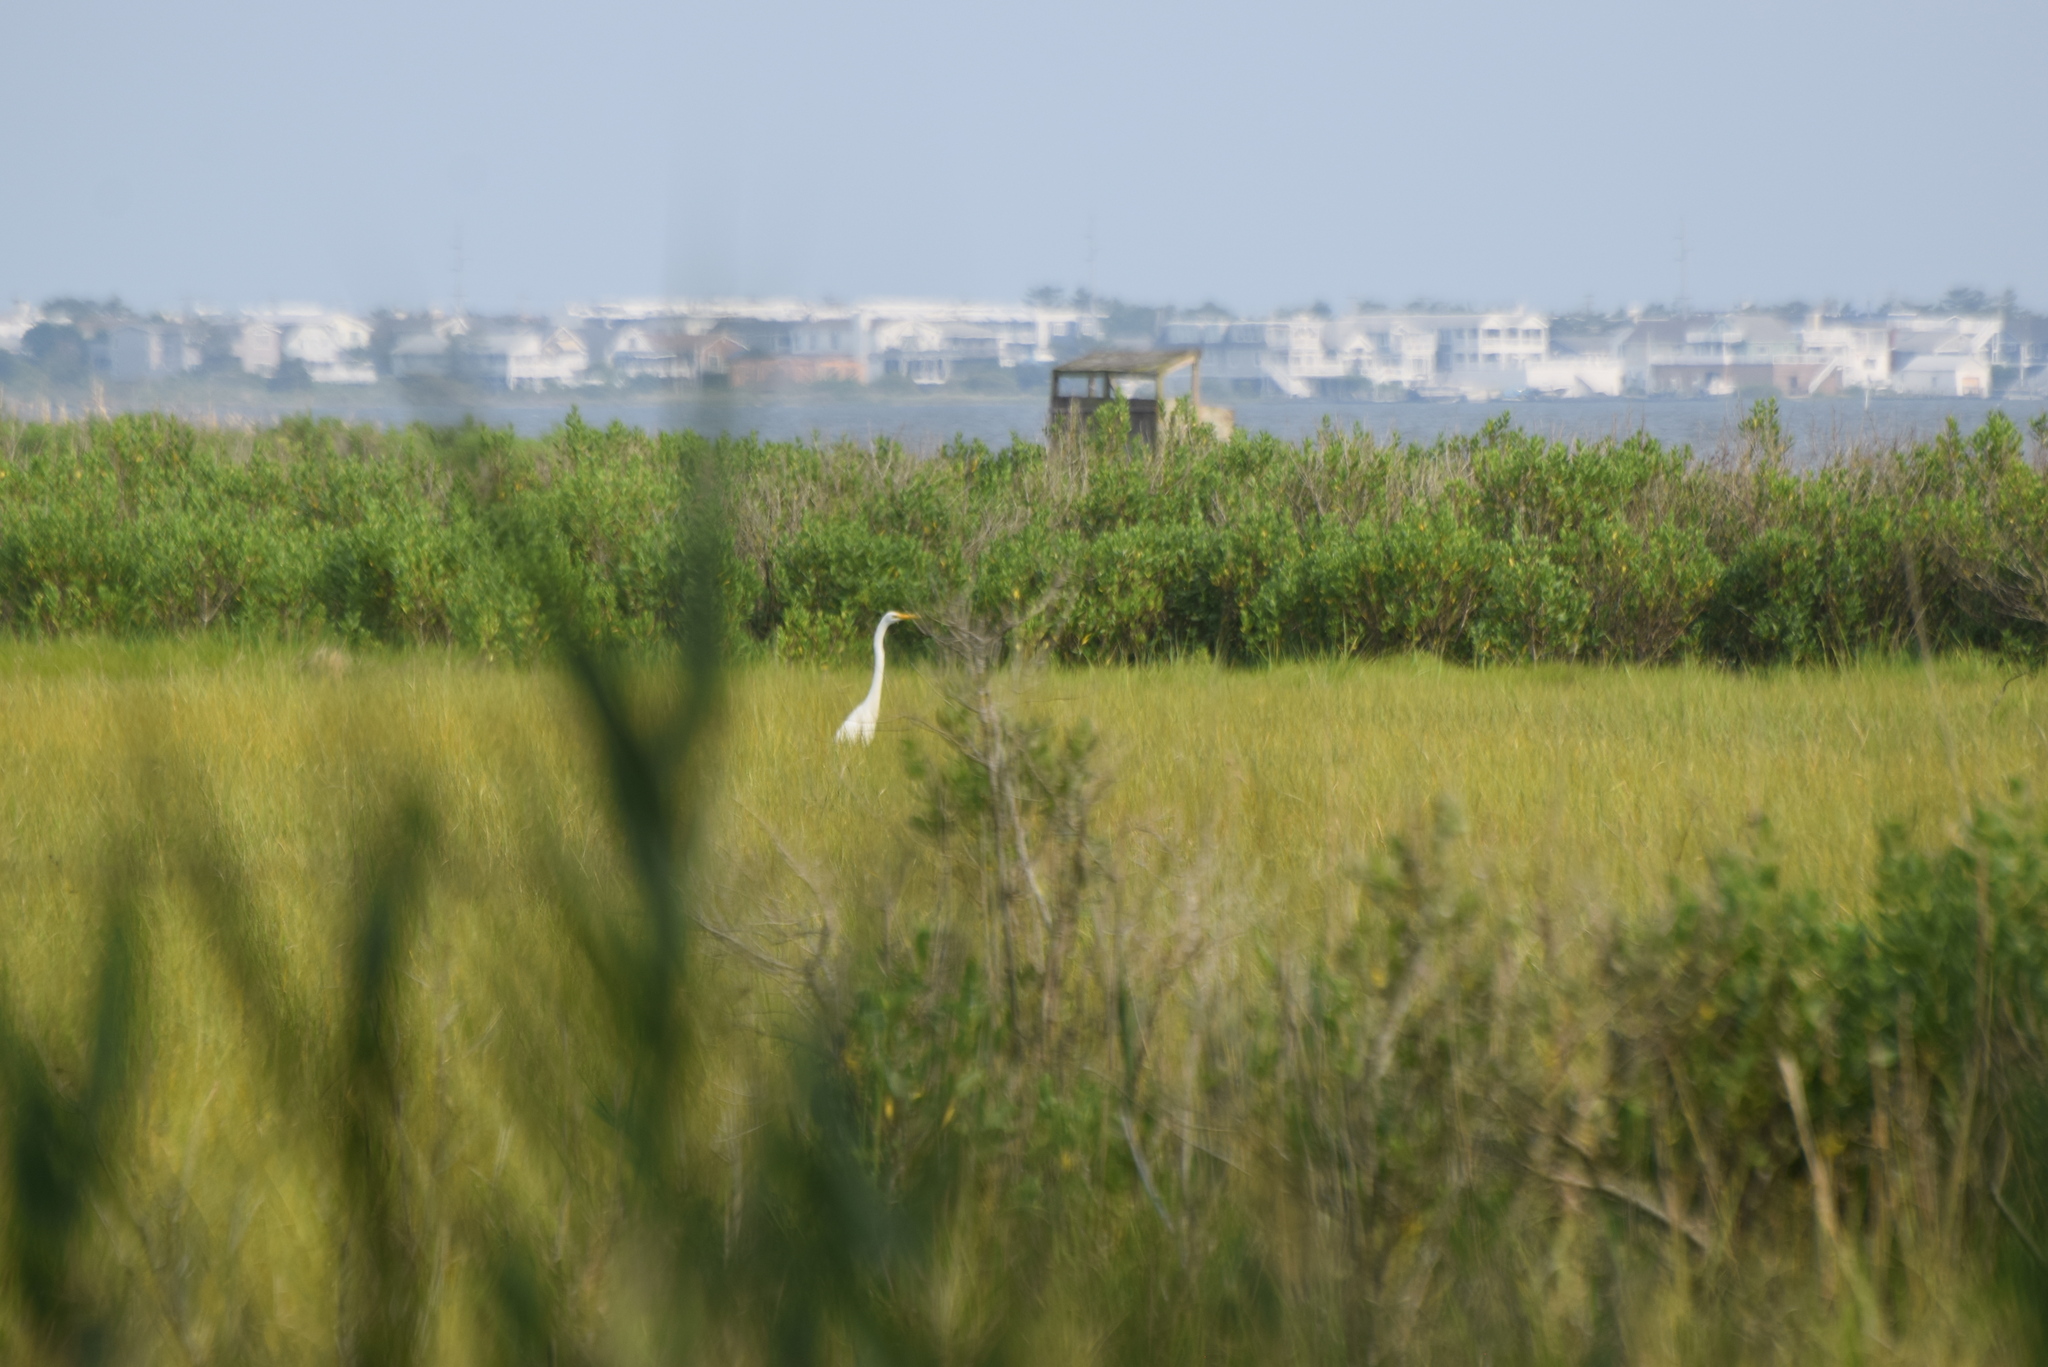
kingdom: Animalia
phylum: Chordata
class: Aves
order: Pelecaniformes
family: Ardeidae
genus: Ardea
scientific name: Ardea alba
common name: Great egret
